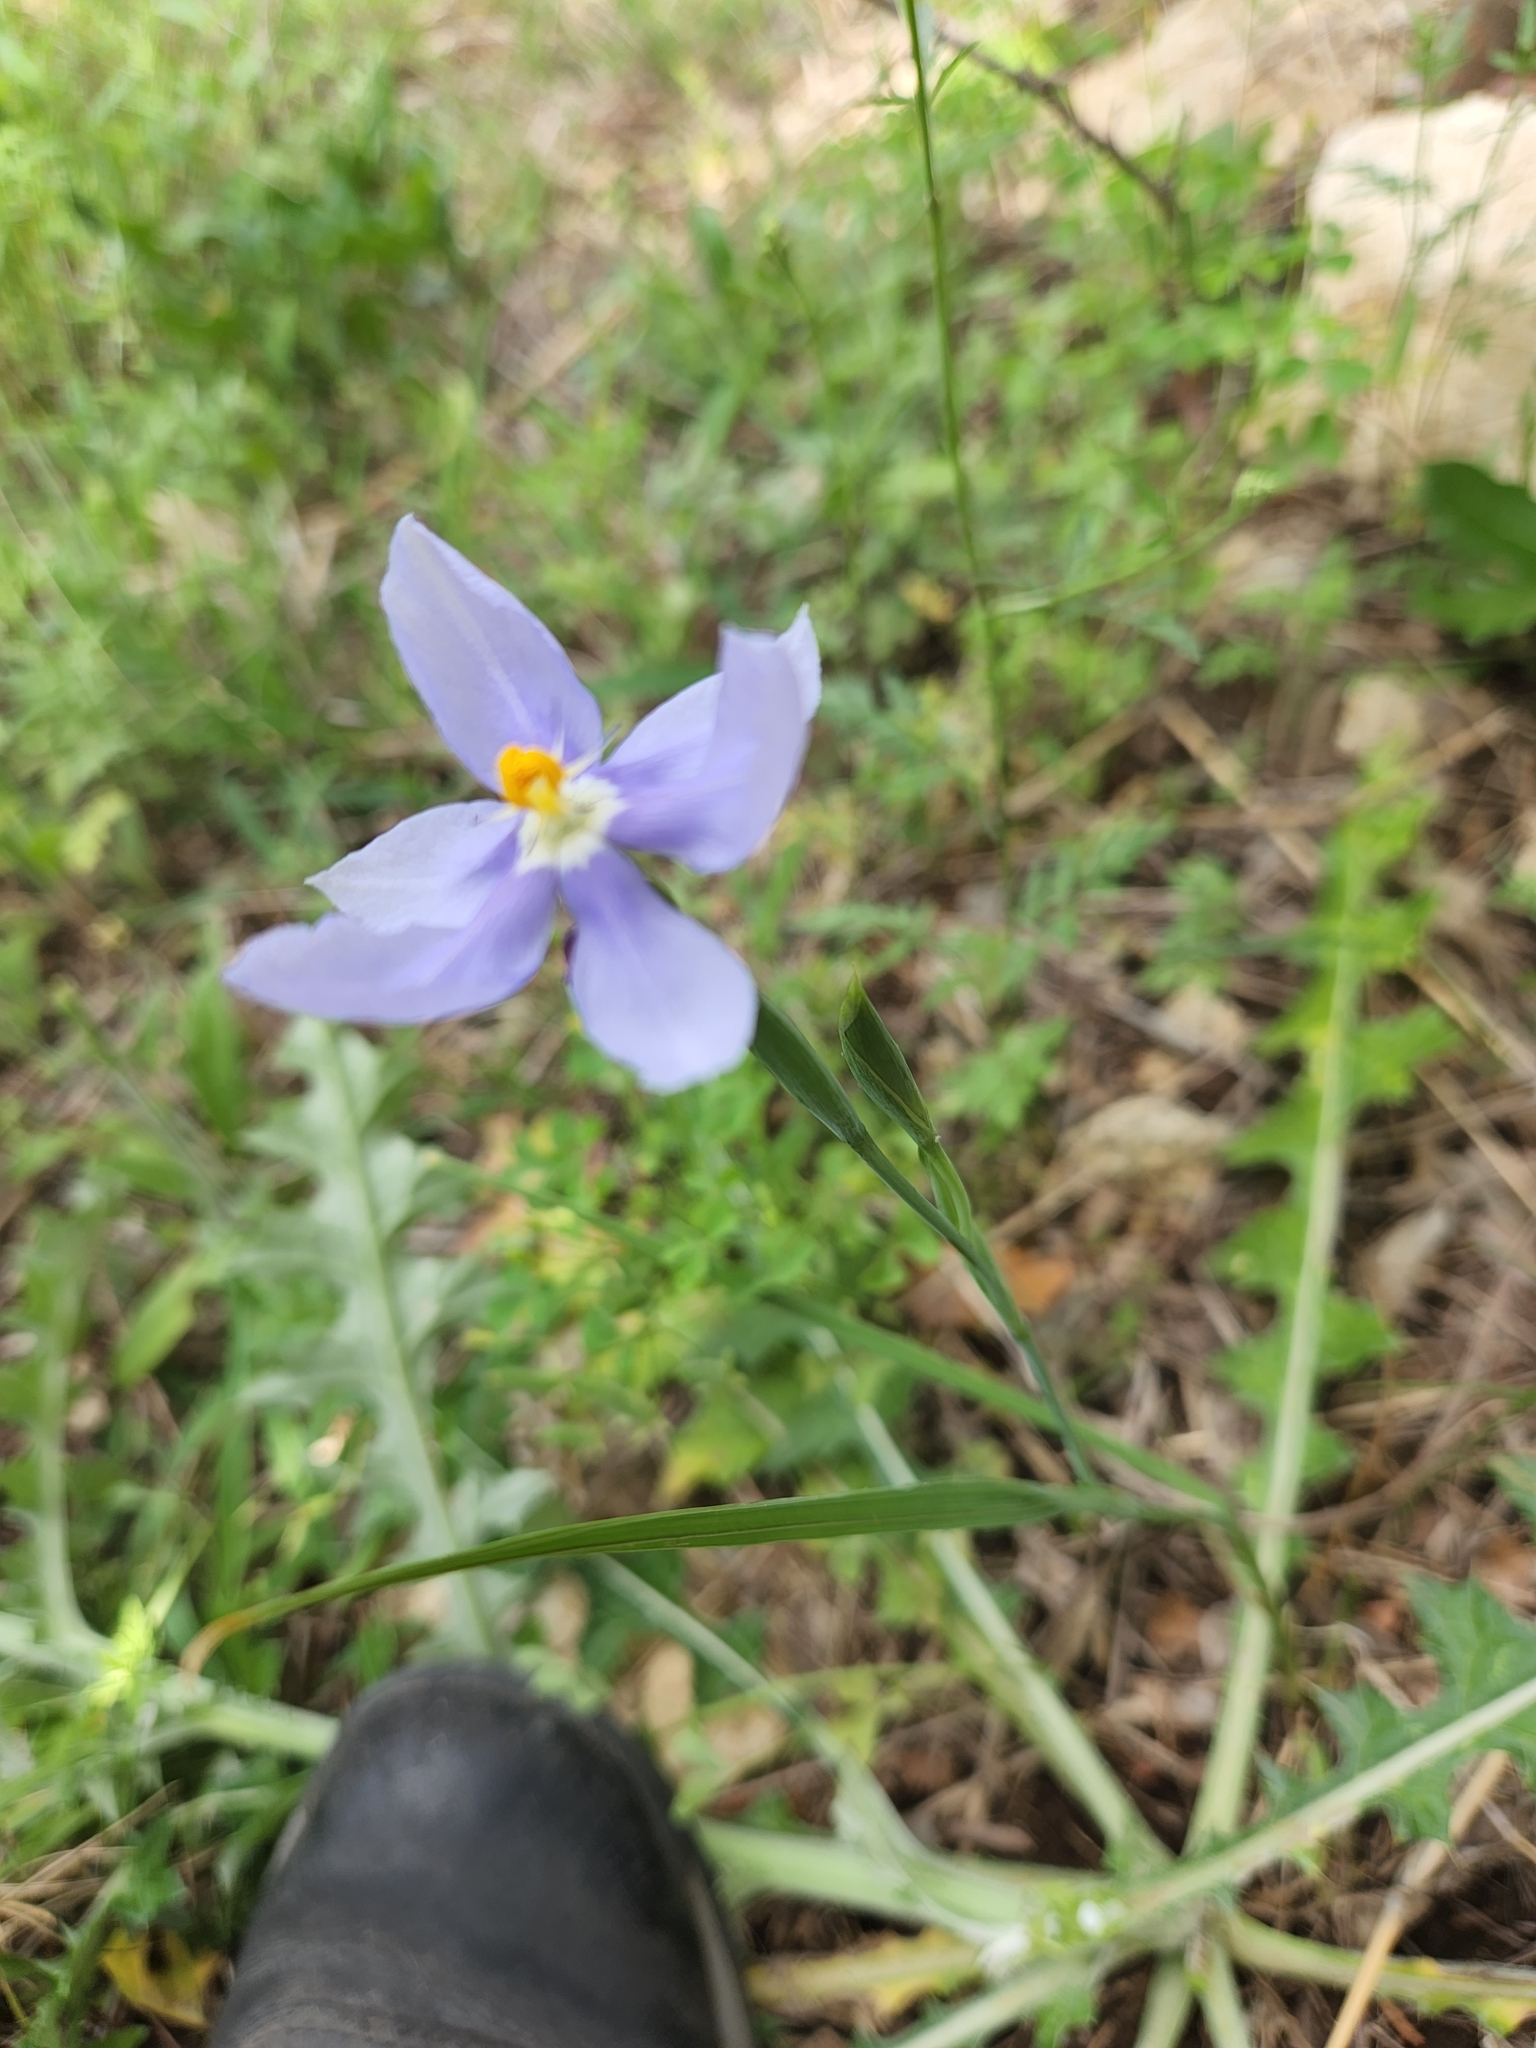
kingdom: Plantae
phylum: Tracheophyta
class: Liliopsida
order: Asparagales
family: Iridaceae
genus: Nemastylis
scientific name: Nemastylis geminiflora
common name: Prairie celestial
